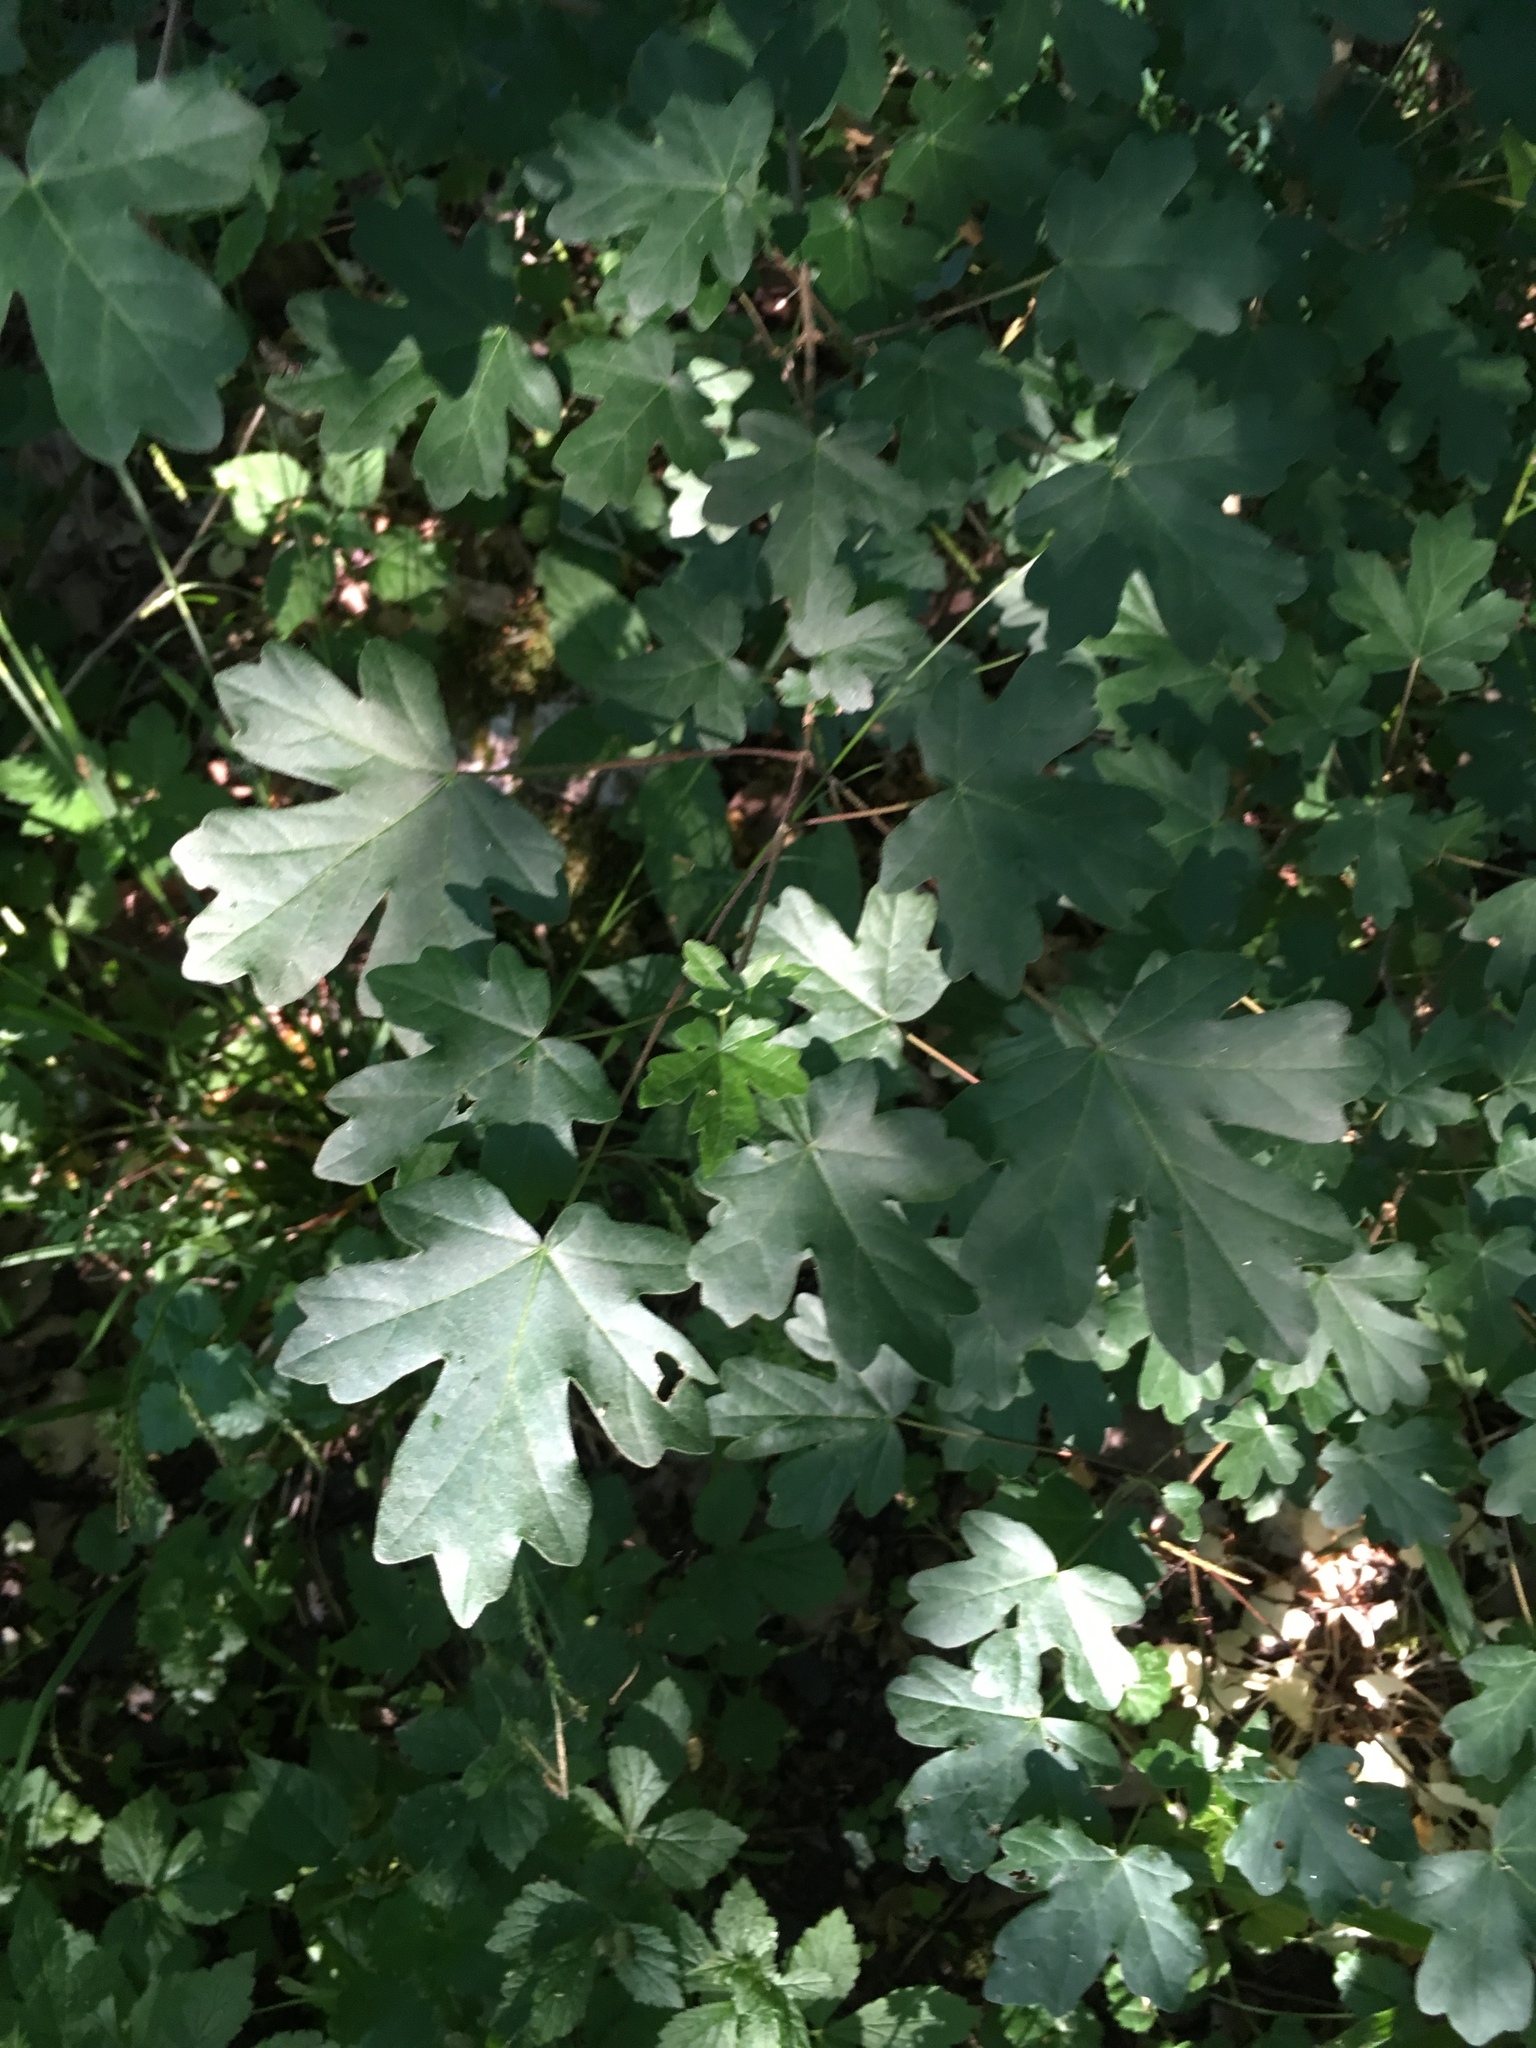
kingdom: Plantae
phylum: Tracheophyta
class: Magnoliopsida
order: Sapindales
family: Sapindaceae
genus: Acer
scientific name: Acer campestre
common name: Field maple
